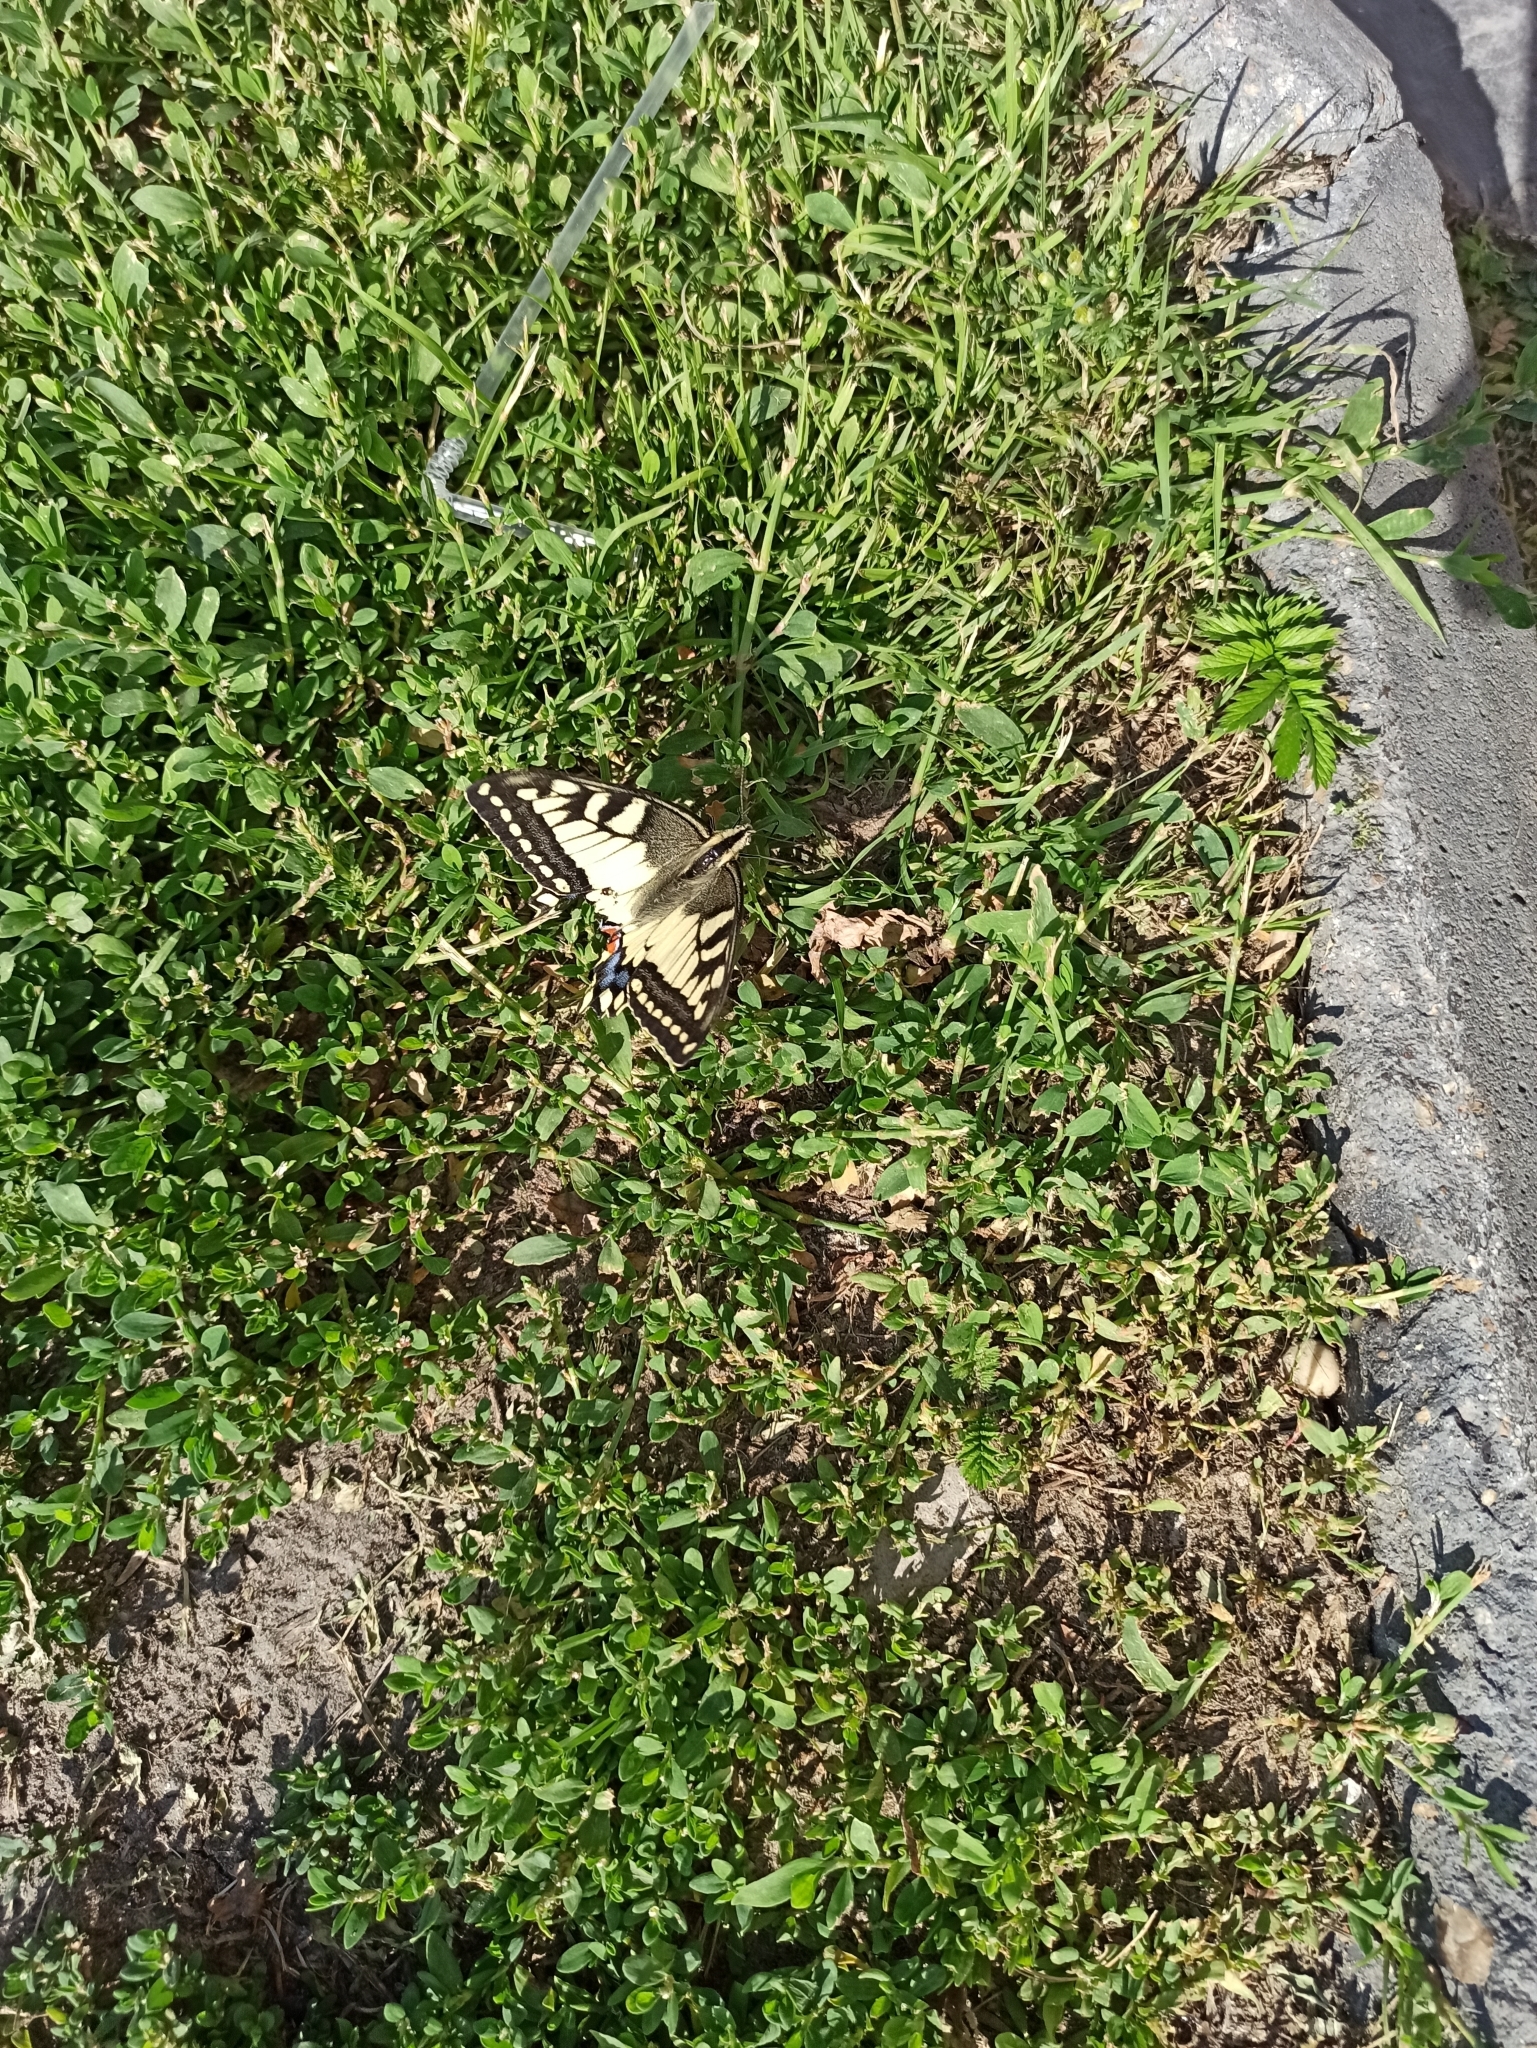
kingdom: Animalia
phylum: Arthropoda
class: Insecta
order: Lepidoptera
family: Papilionidae
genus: Papilio
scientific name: Papilio machaon
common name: Swallowtail
